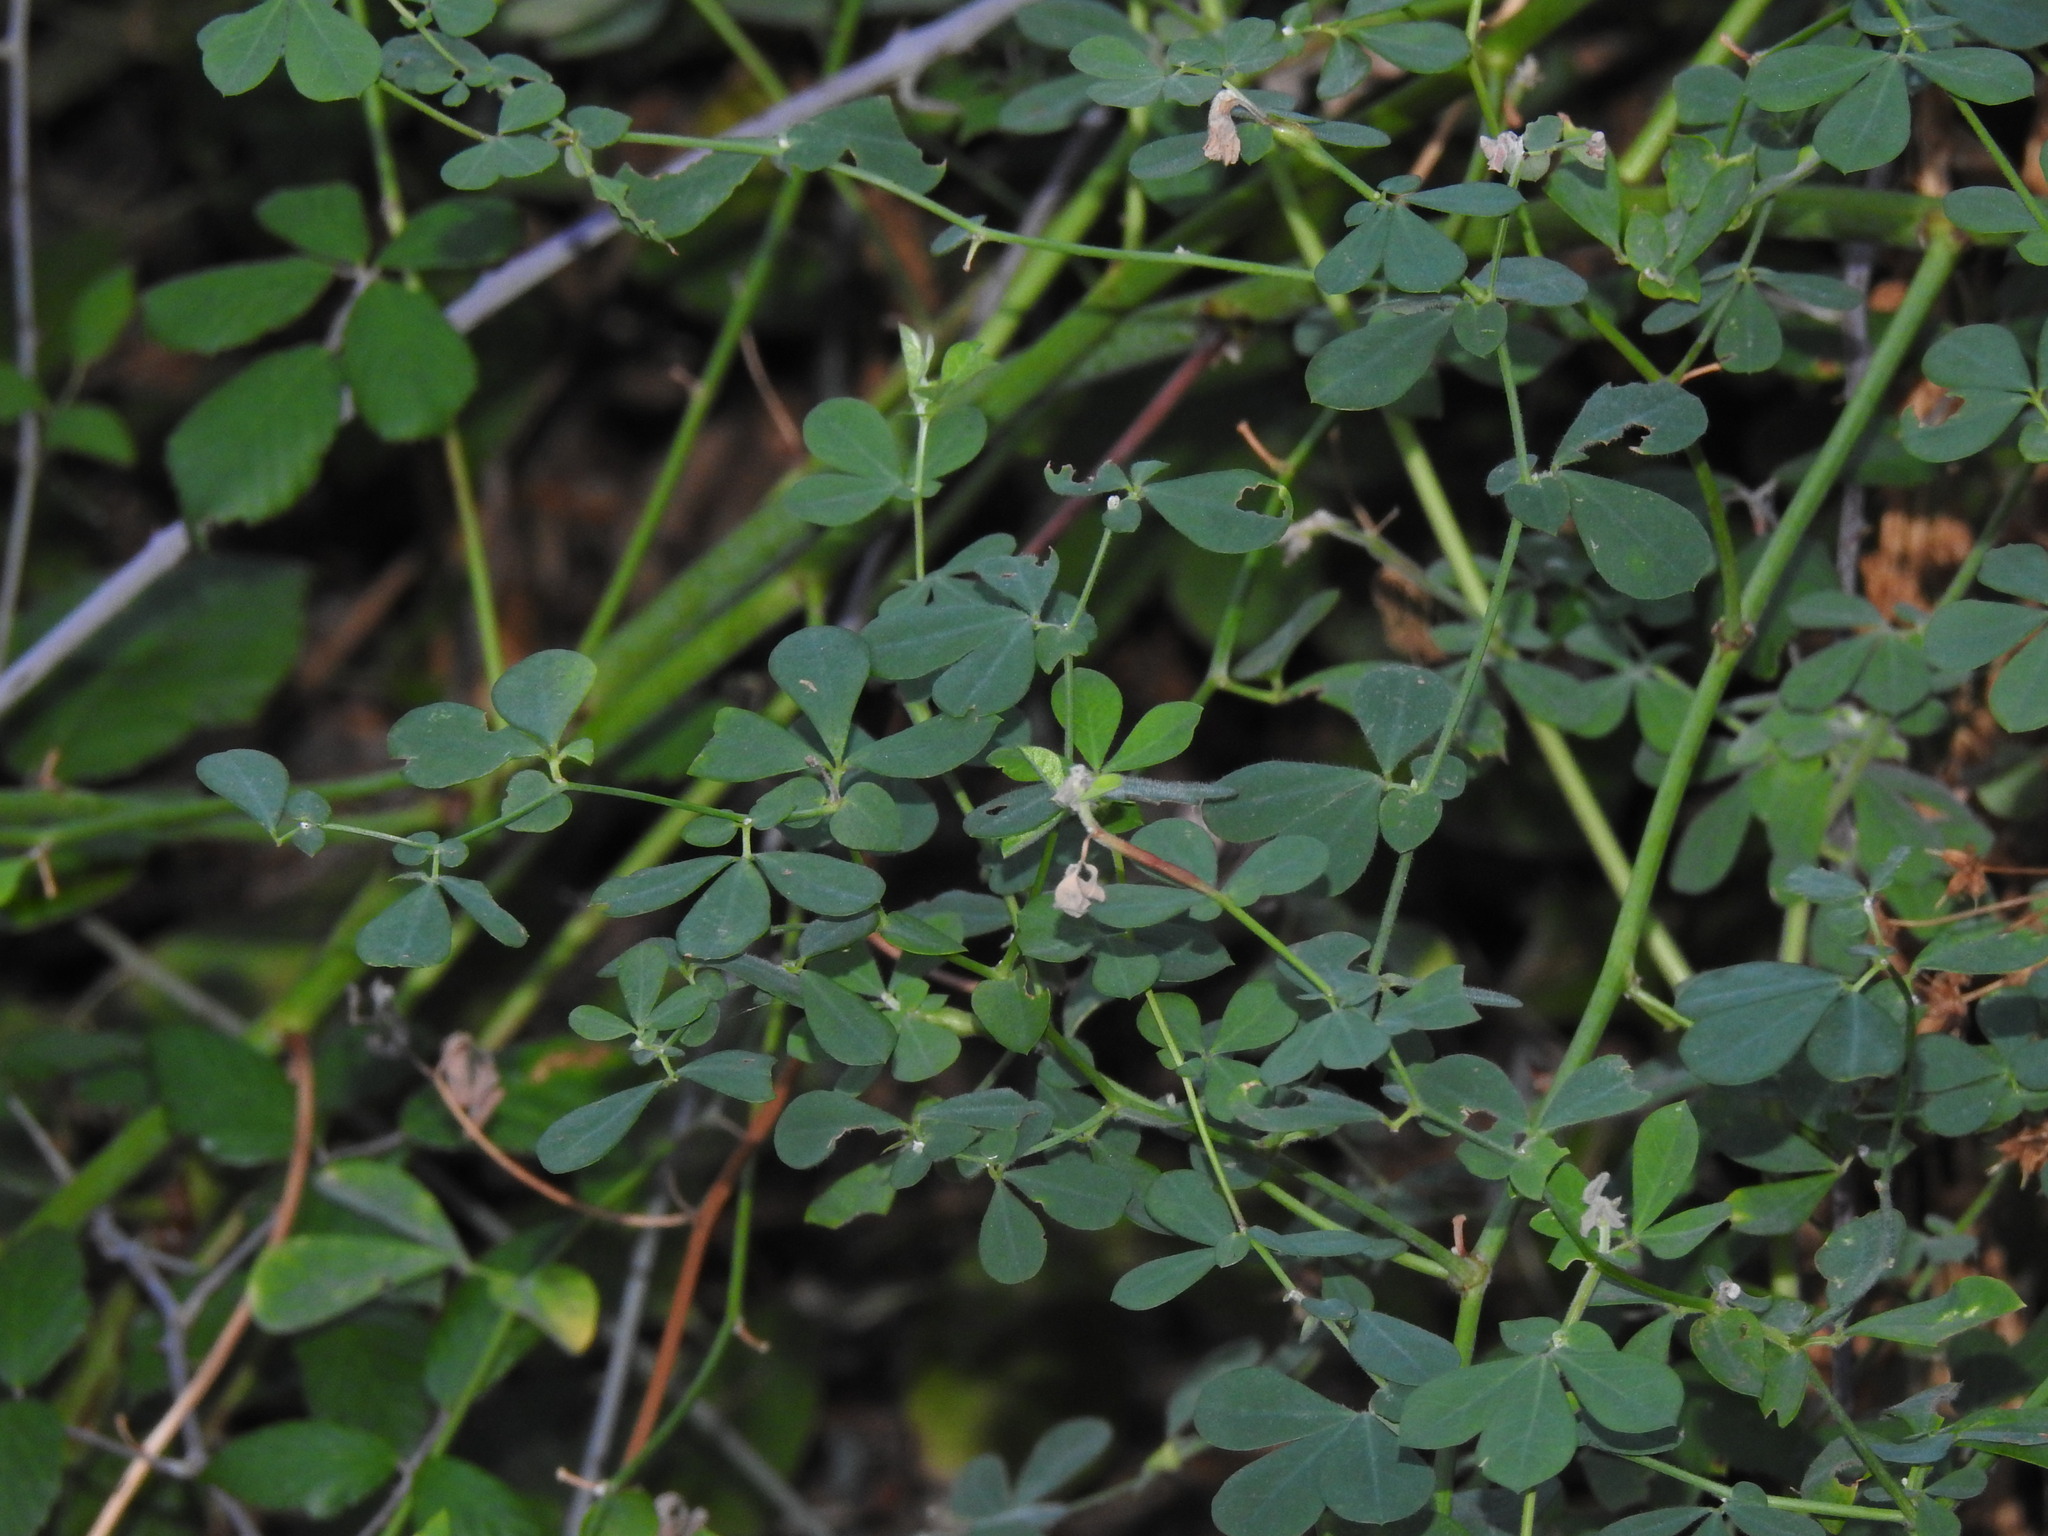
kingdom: Plantae
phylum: Tracheophyta
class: Magnoliopsida
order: Fabales
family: Fabaceae
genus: Lotus
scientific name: Lotus rectus
